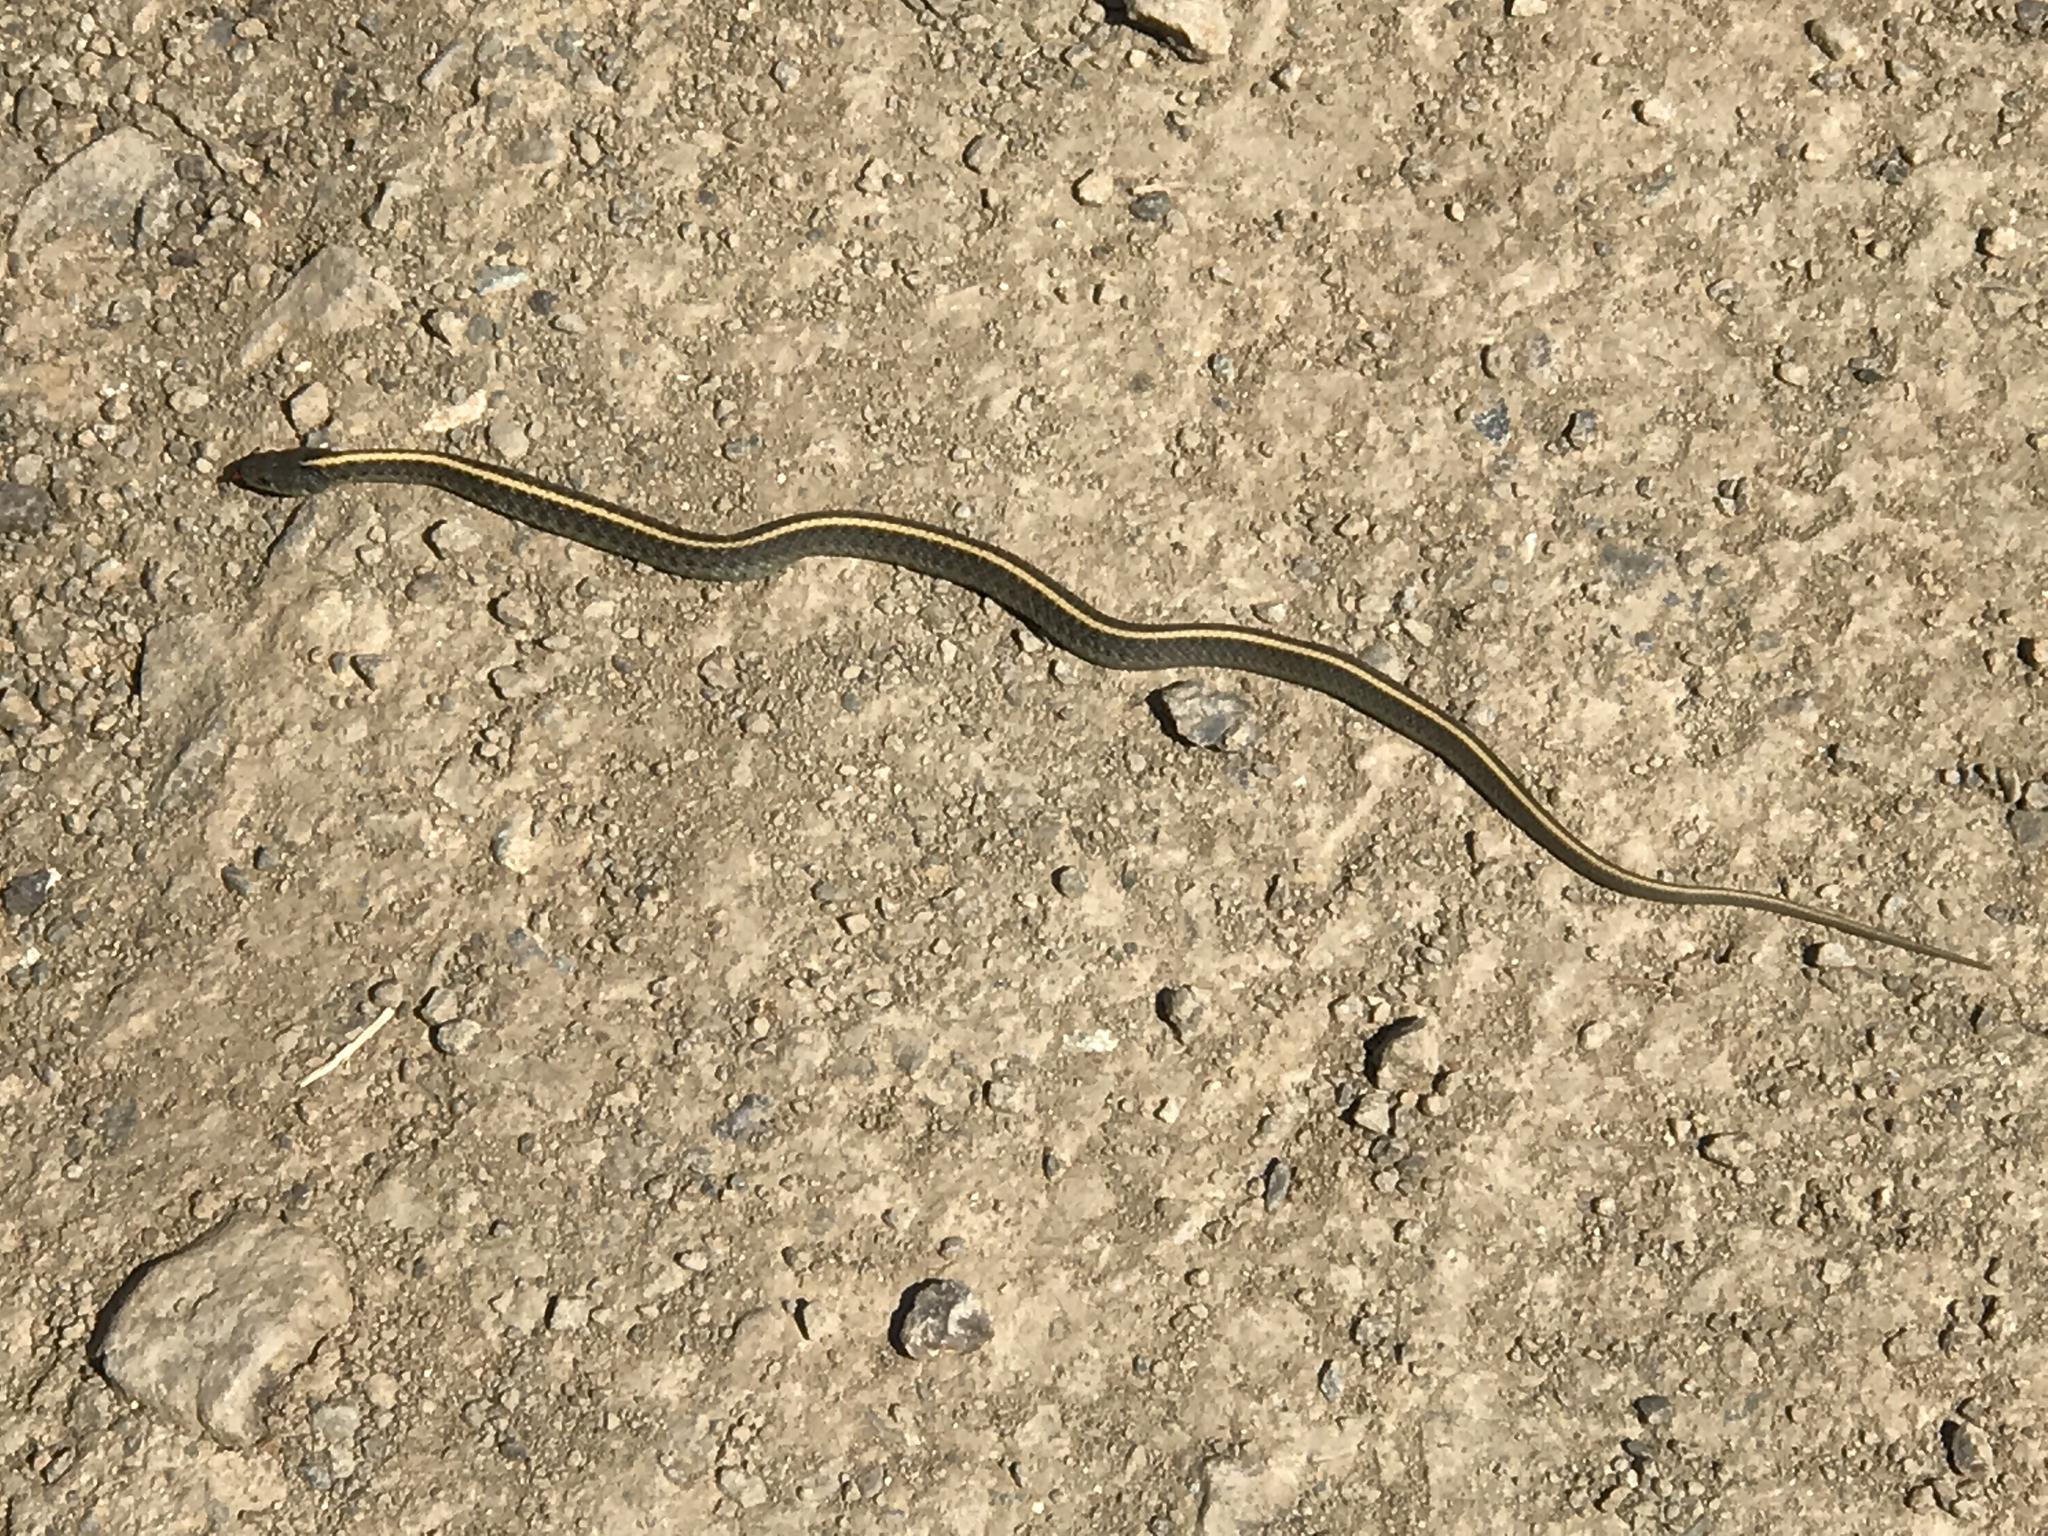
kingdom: Animalia
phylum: Chordata
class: Squamata
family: Colubridae
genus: Thamnophis
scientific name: Thamnophis atratus
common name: Pacific coast aquatic garter snake
